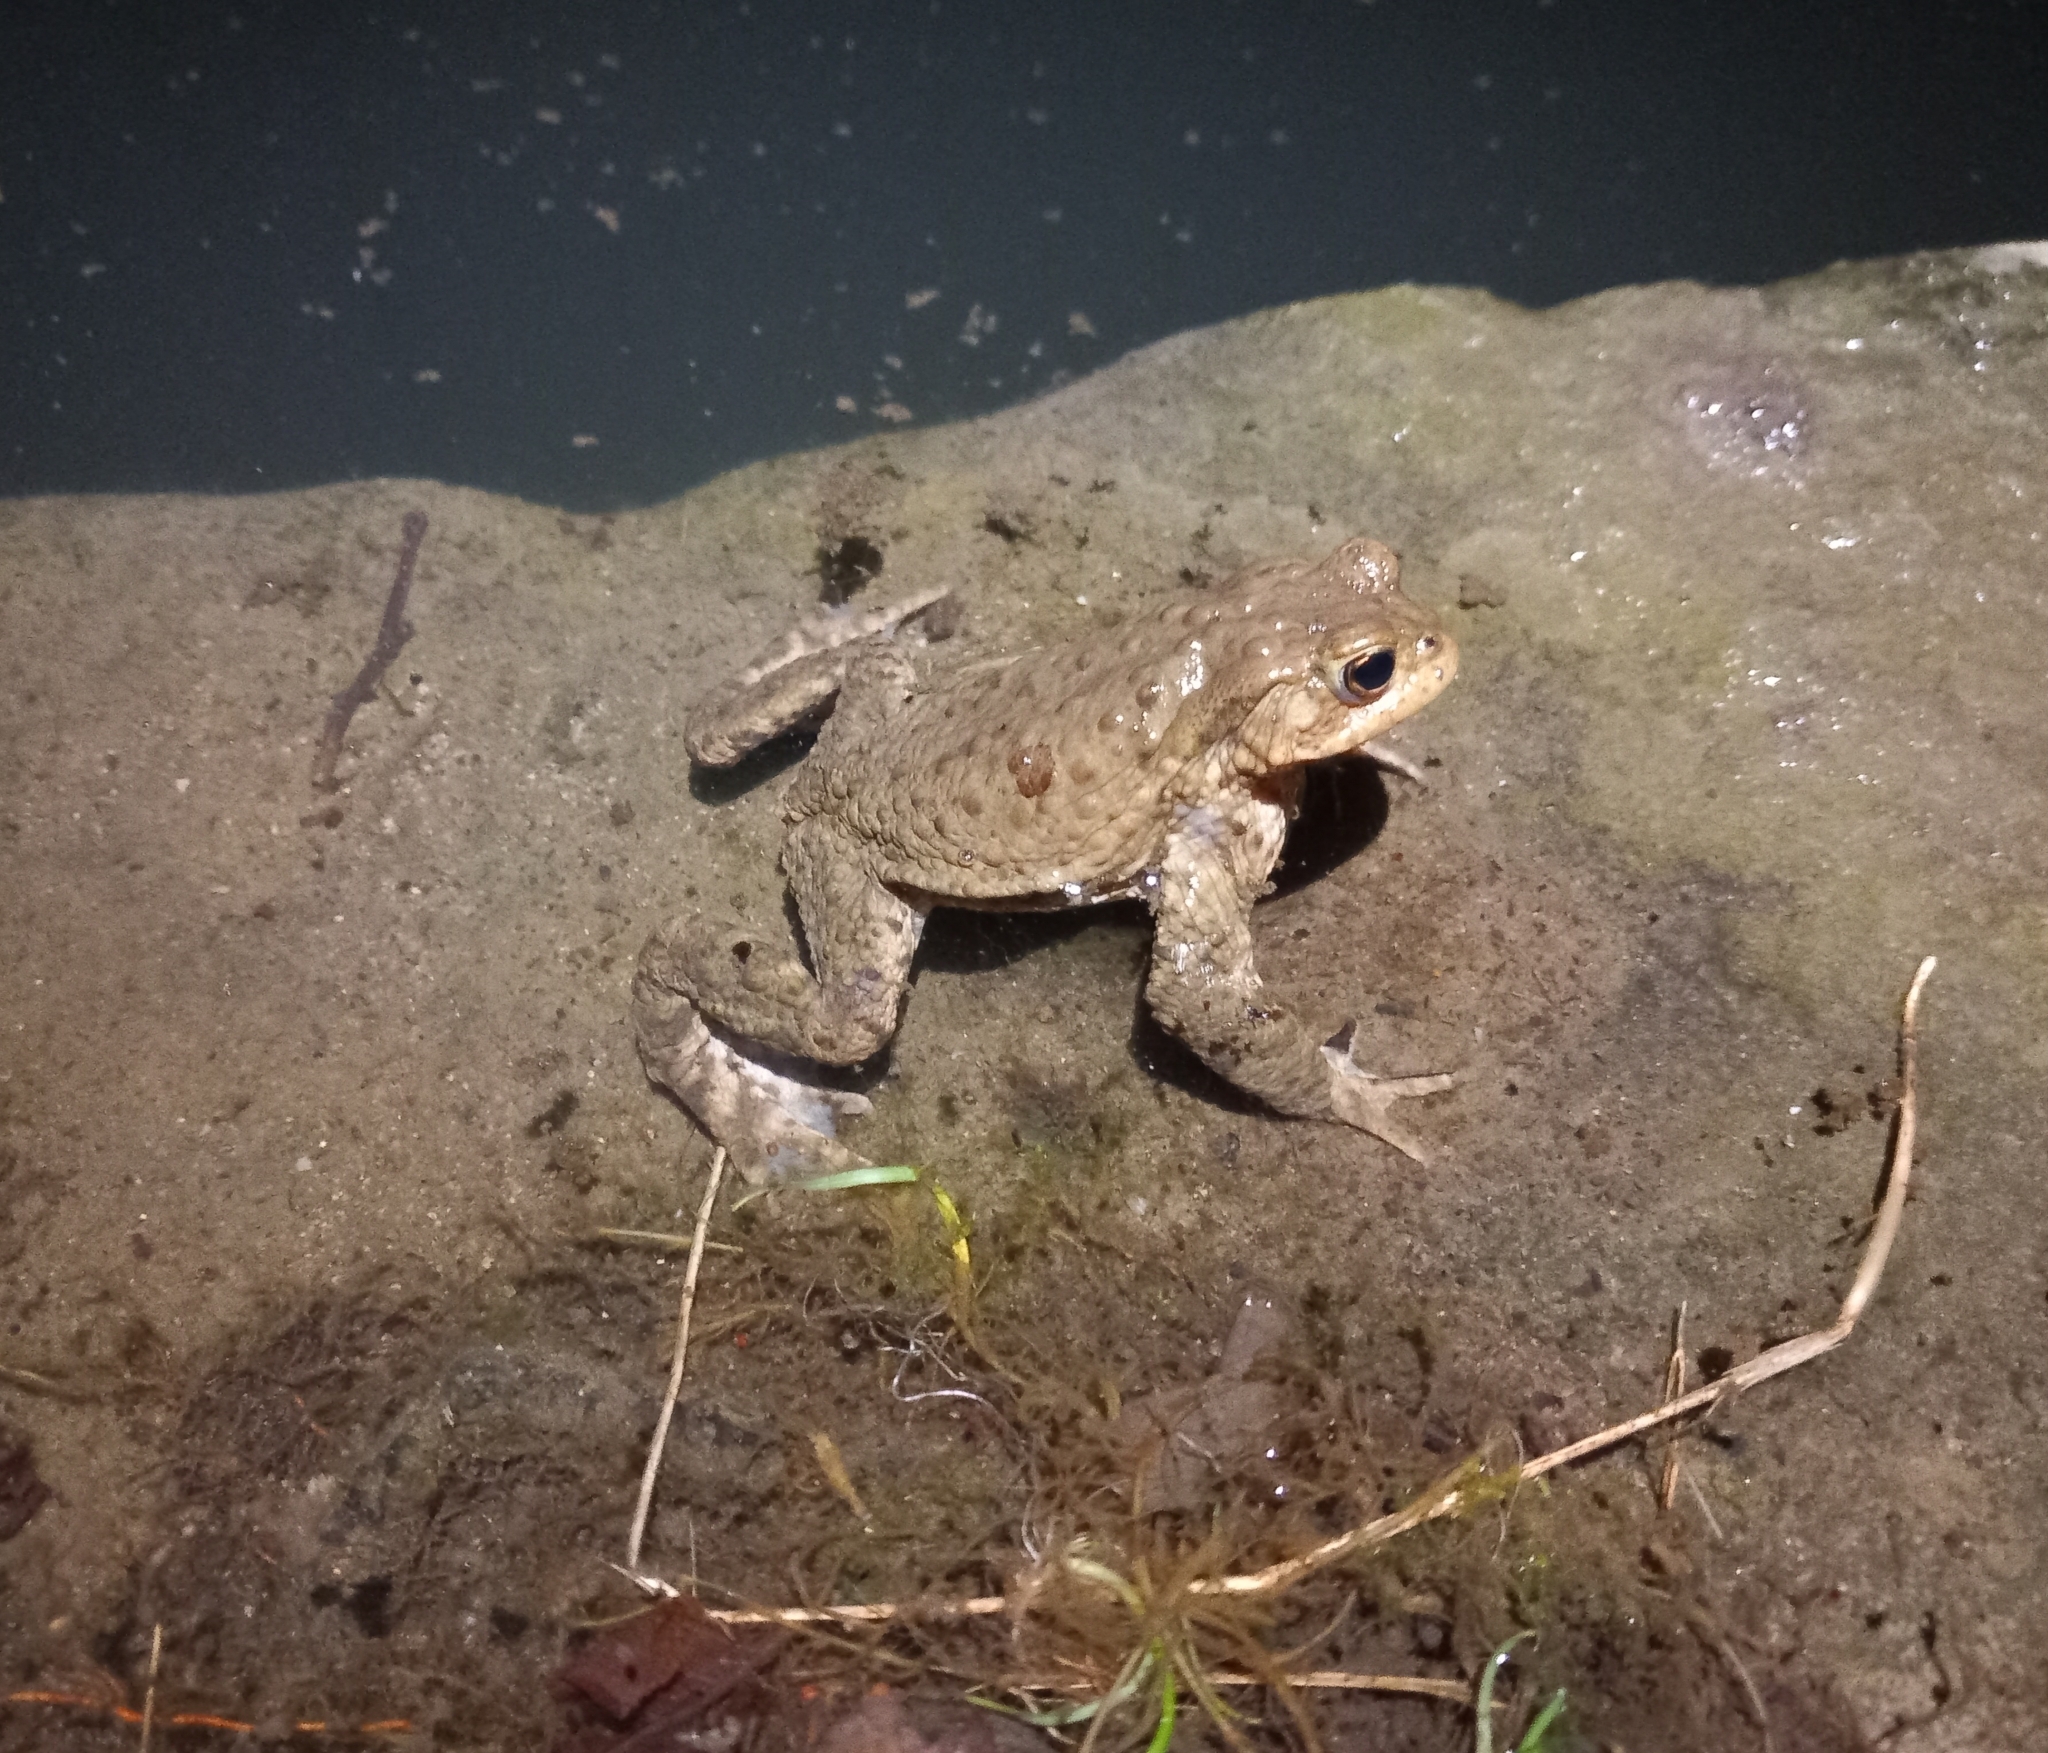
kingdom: Animalia
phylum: Chordata
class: Amphibia
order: Anura
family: Bufonidae
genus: Bufo
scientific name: Bufo bufo
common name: Common toad
